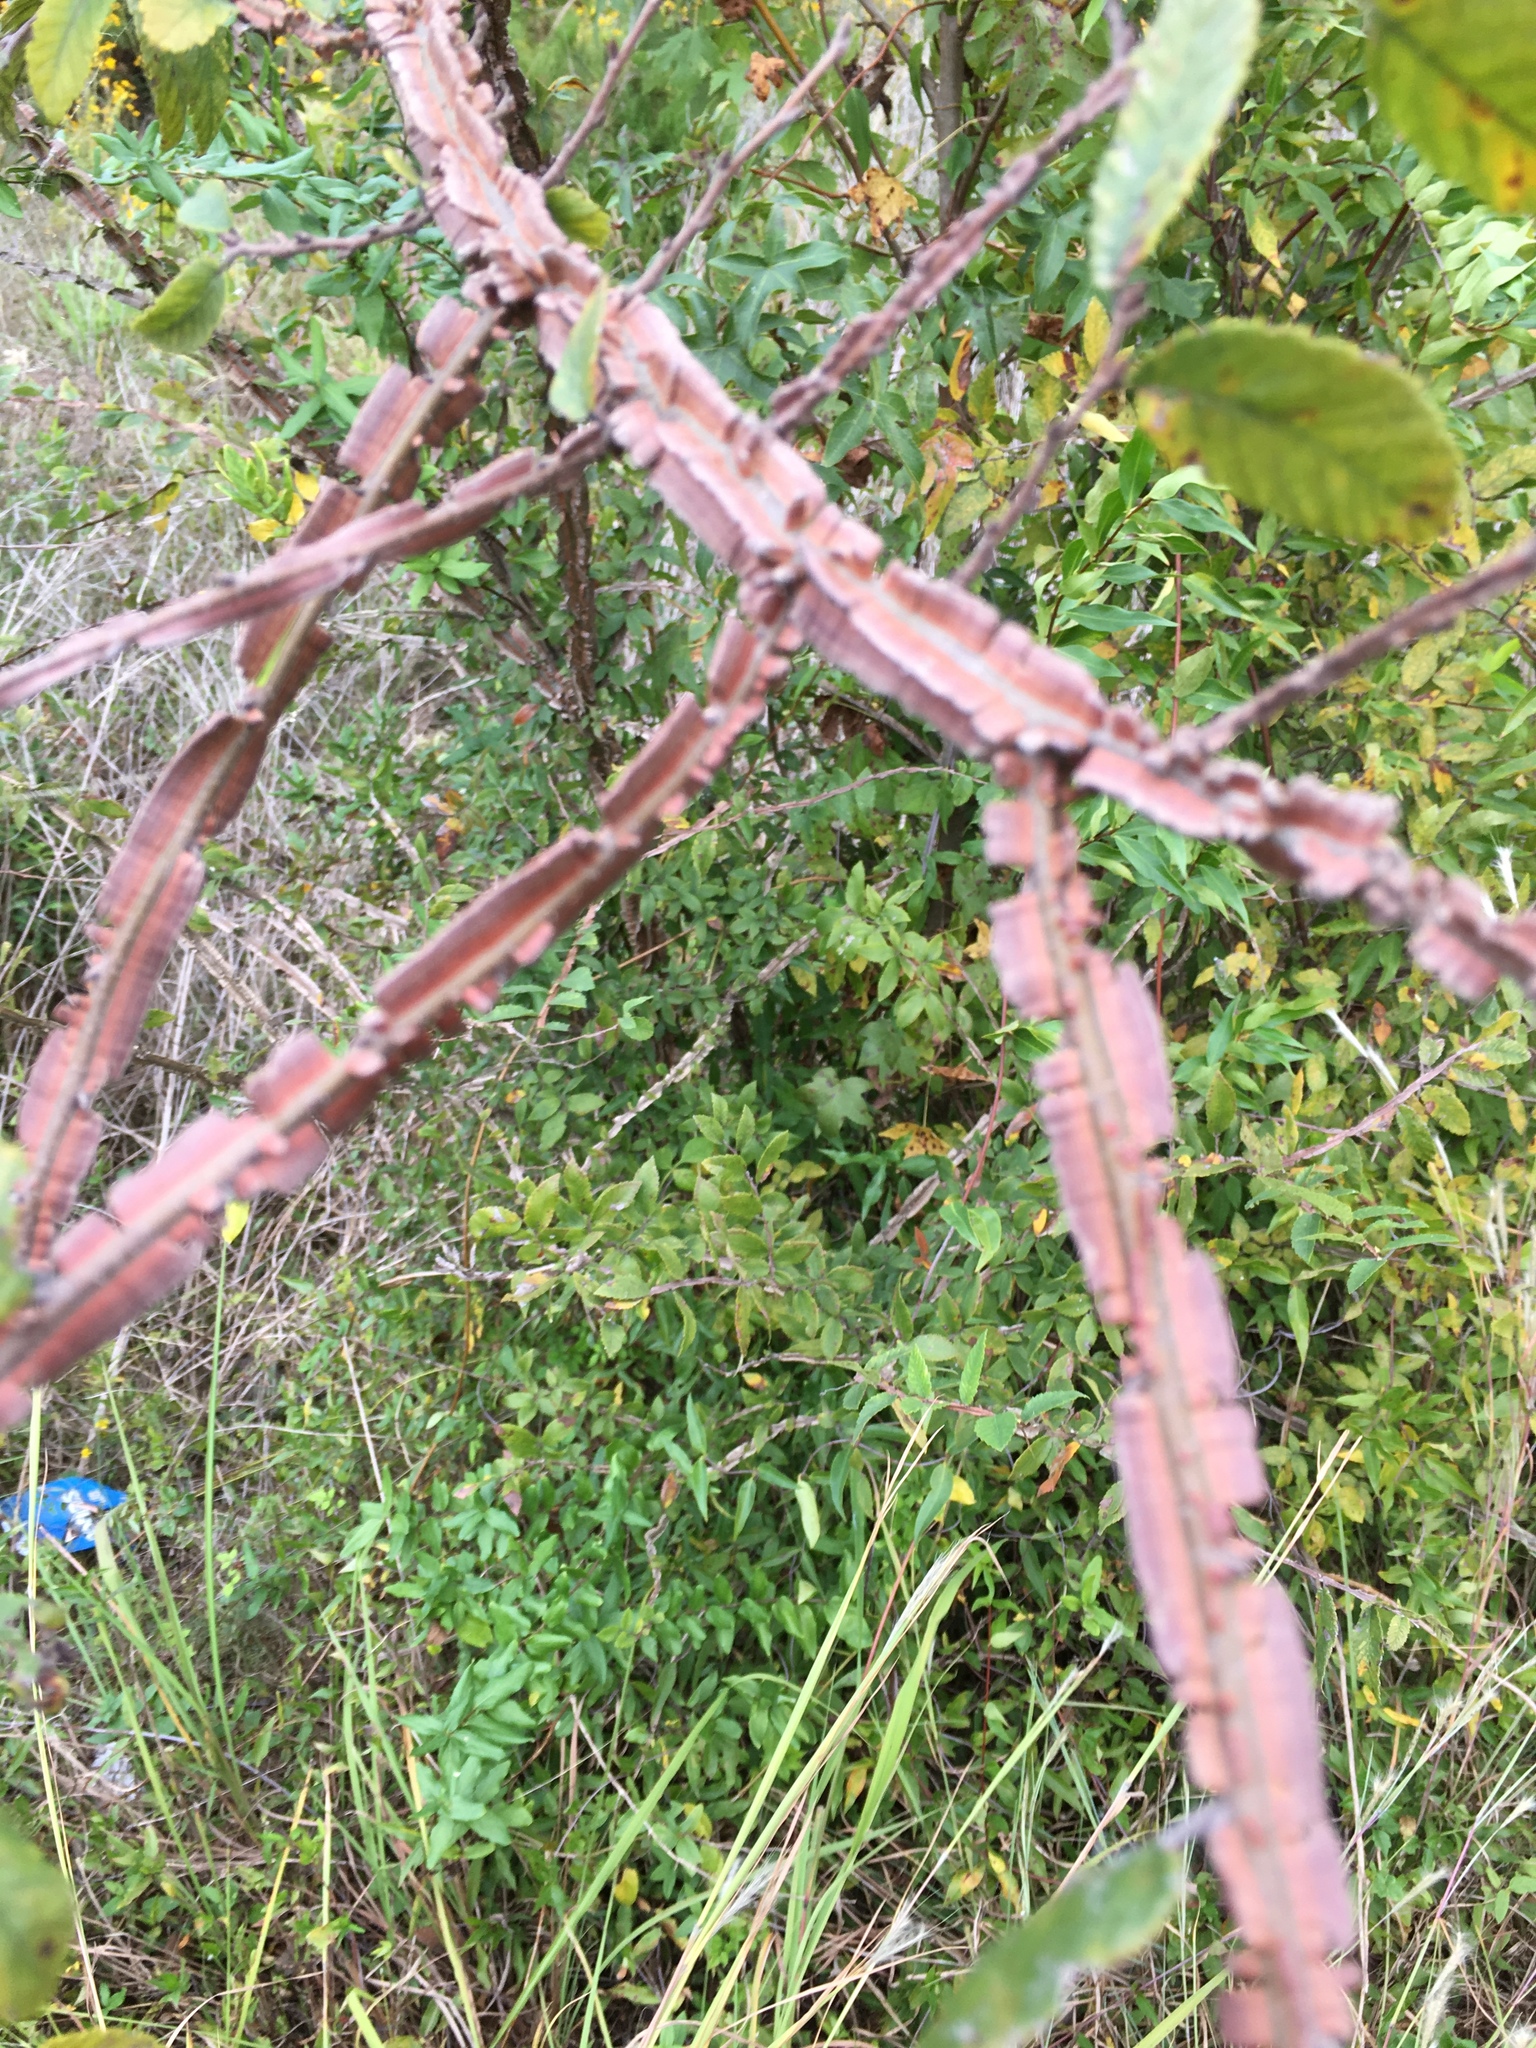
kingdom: Plantae
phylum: Tracheophyta
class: Magnoliopsida
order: Rosales
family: Ulmaceae
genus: Ulmus
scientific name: Ulmus alata
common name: Winged elm
